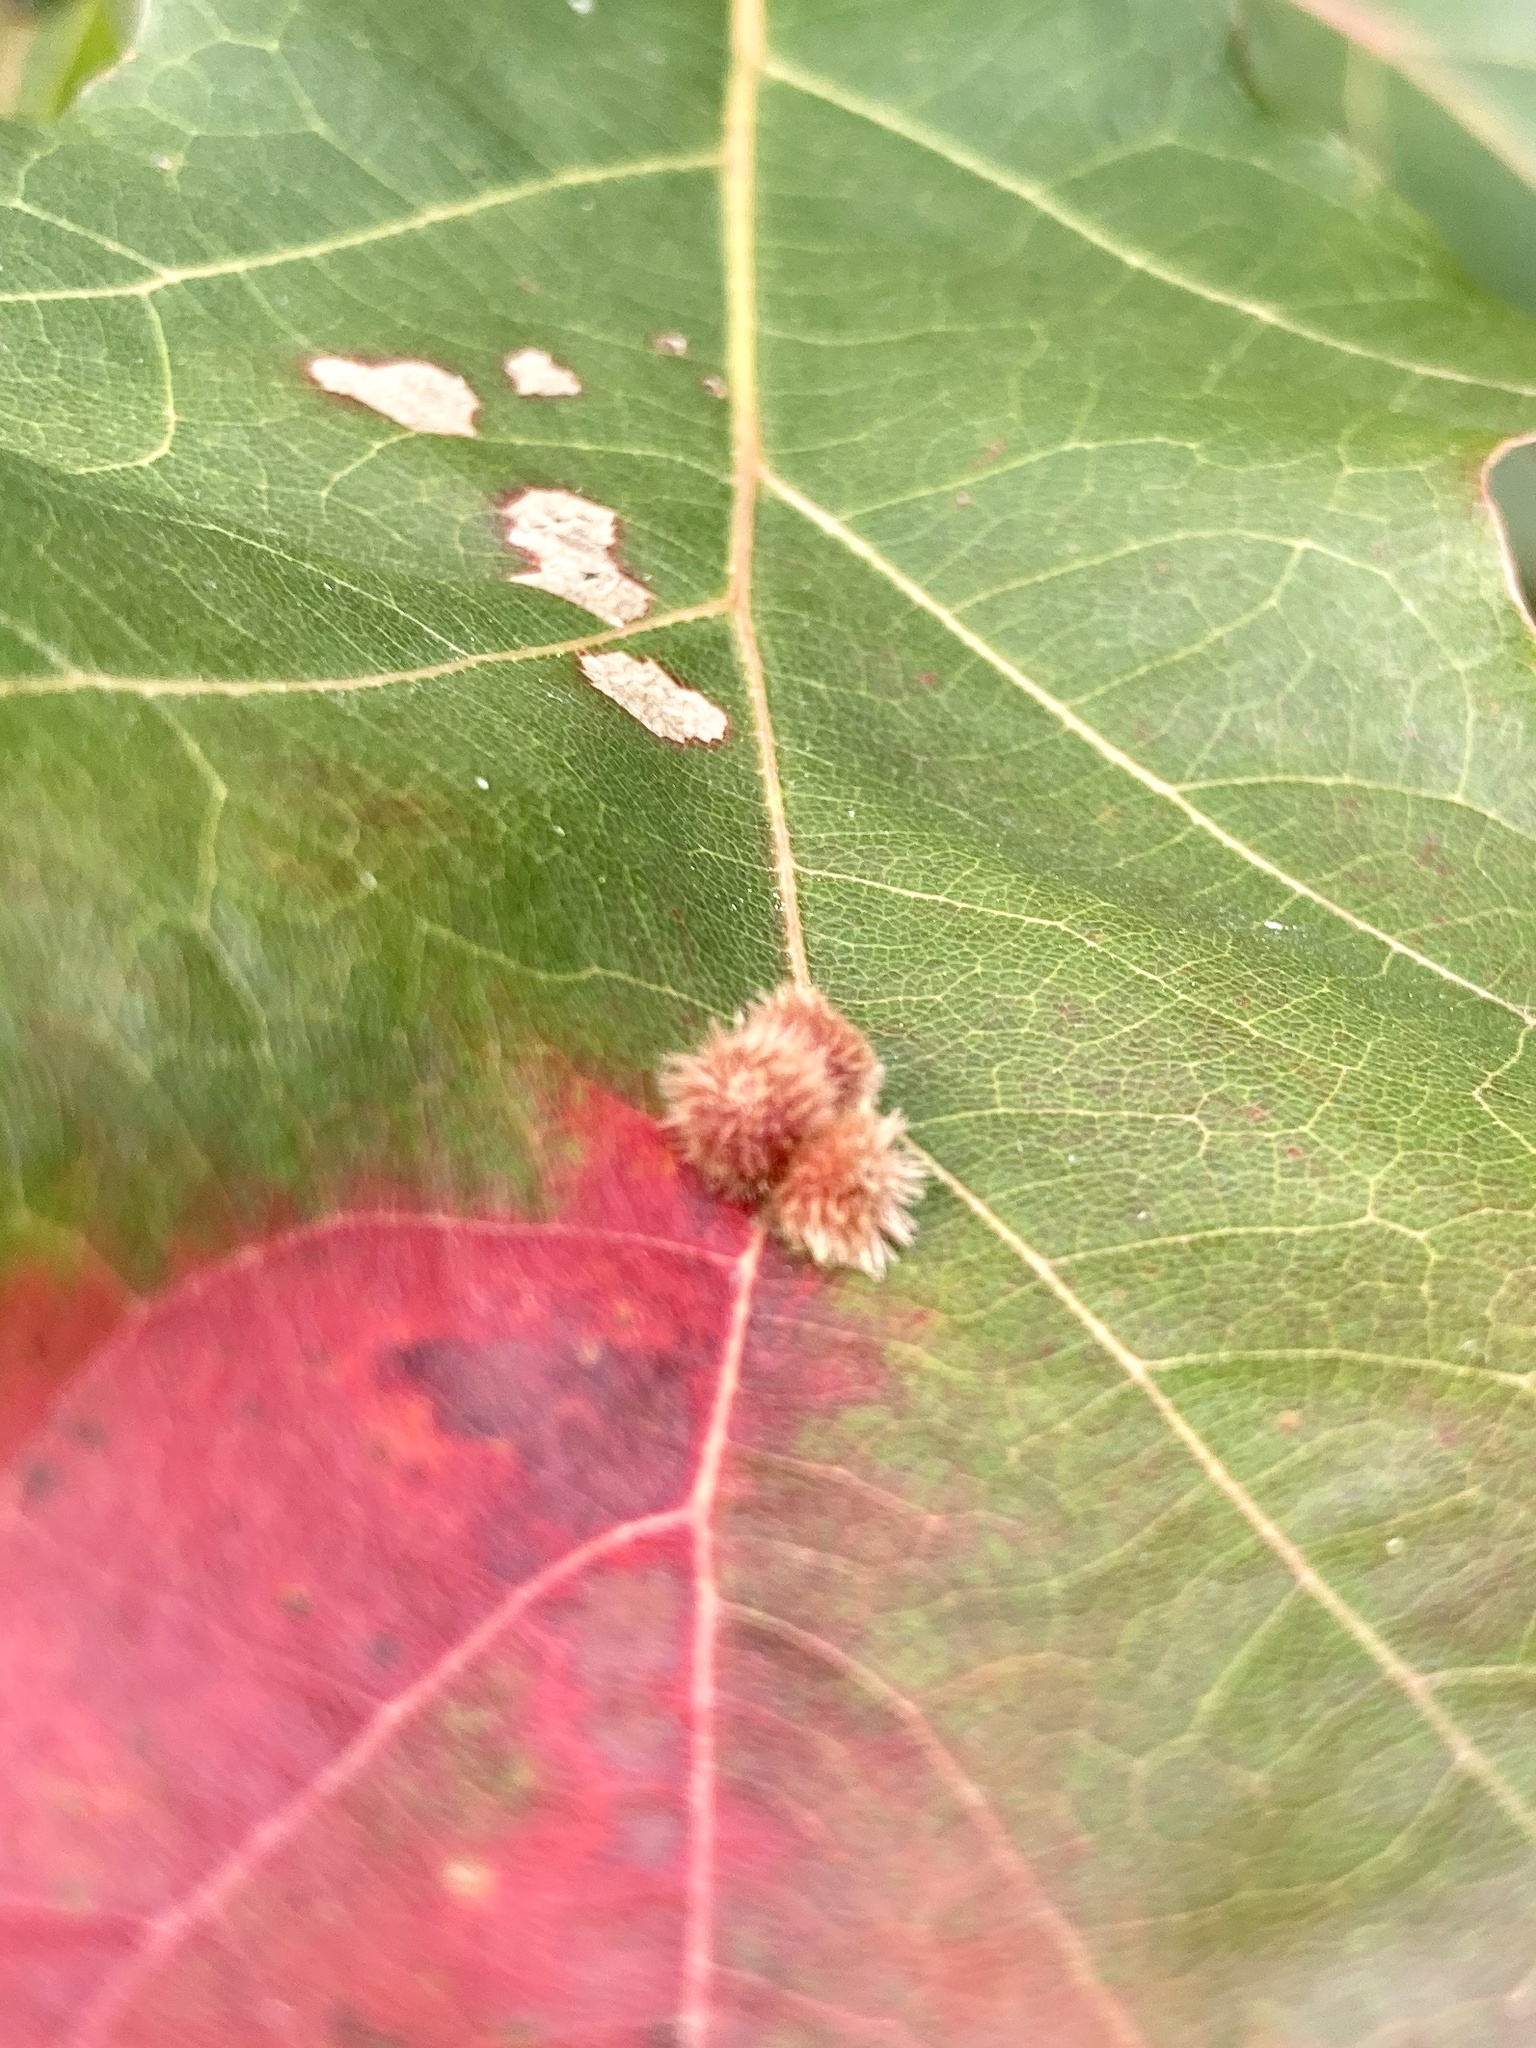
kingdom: Animalia
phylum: Arthropoda
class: Insecta
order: Hymenoptera
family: Cynipidae
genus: Callirhytis
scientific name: Callirhytis
